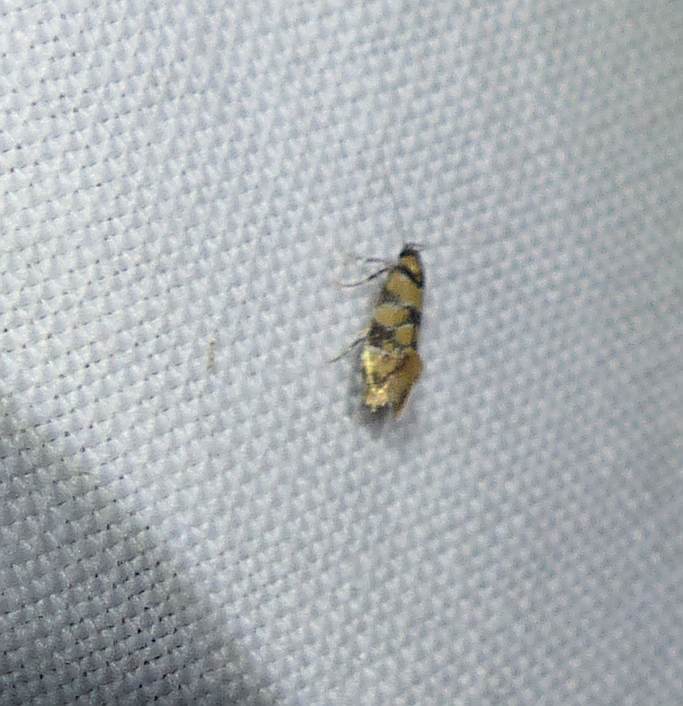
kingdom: Animalia
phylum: Arthropoda
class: Insecta
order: Lepidoptera
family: Oecophoridae
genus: Decantha
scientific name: Decantha borkhausenii
